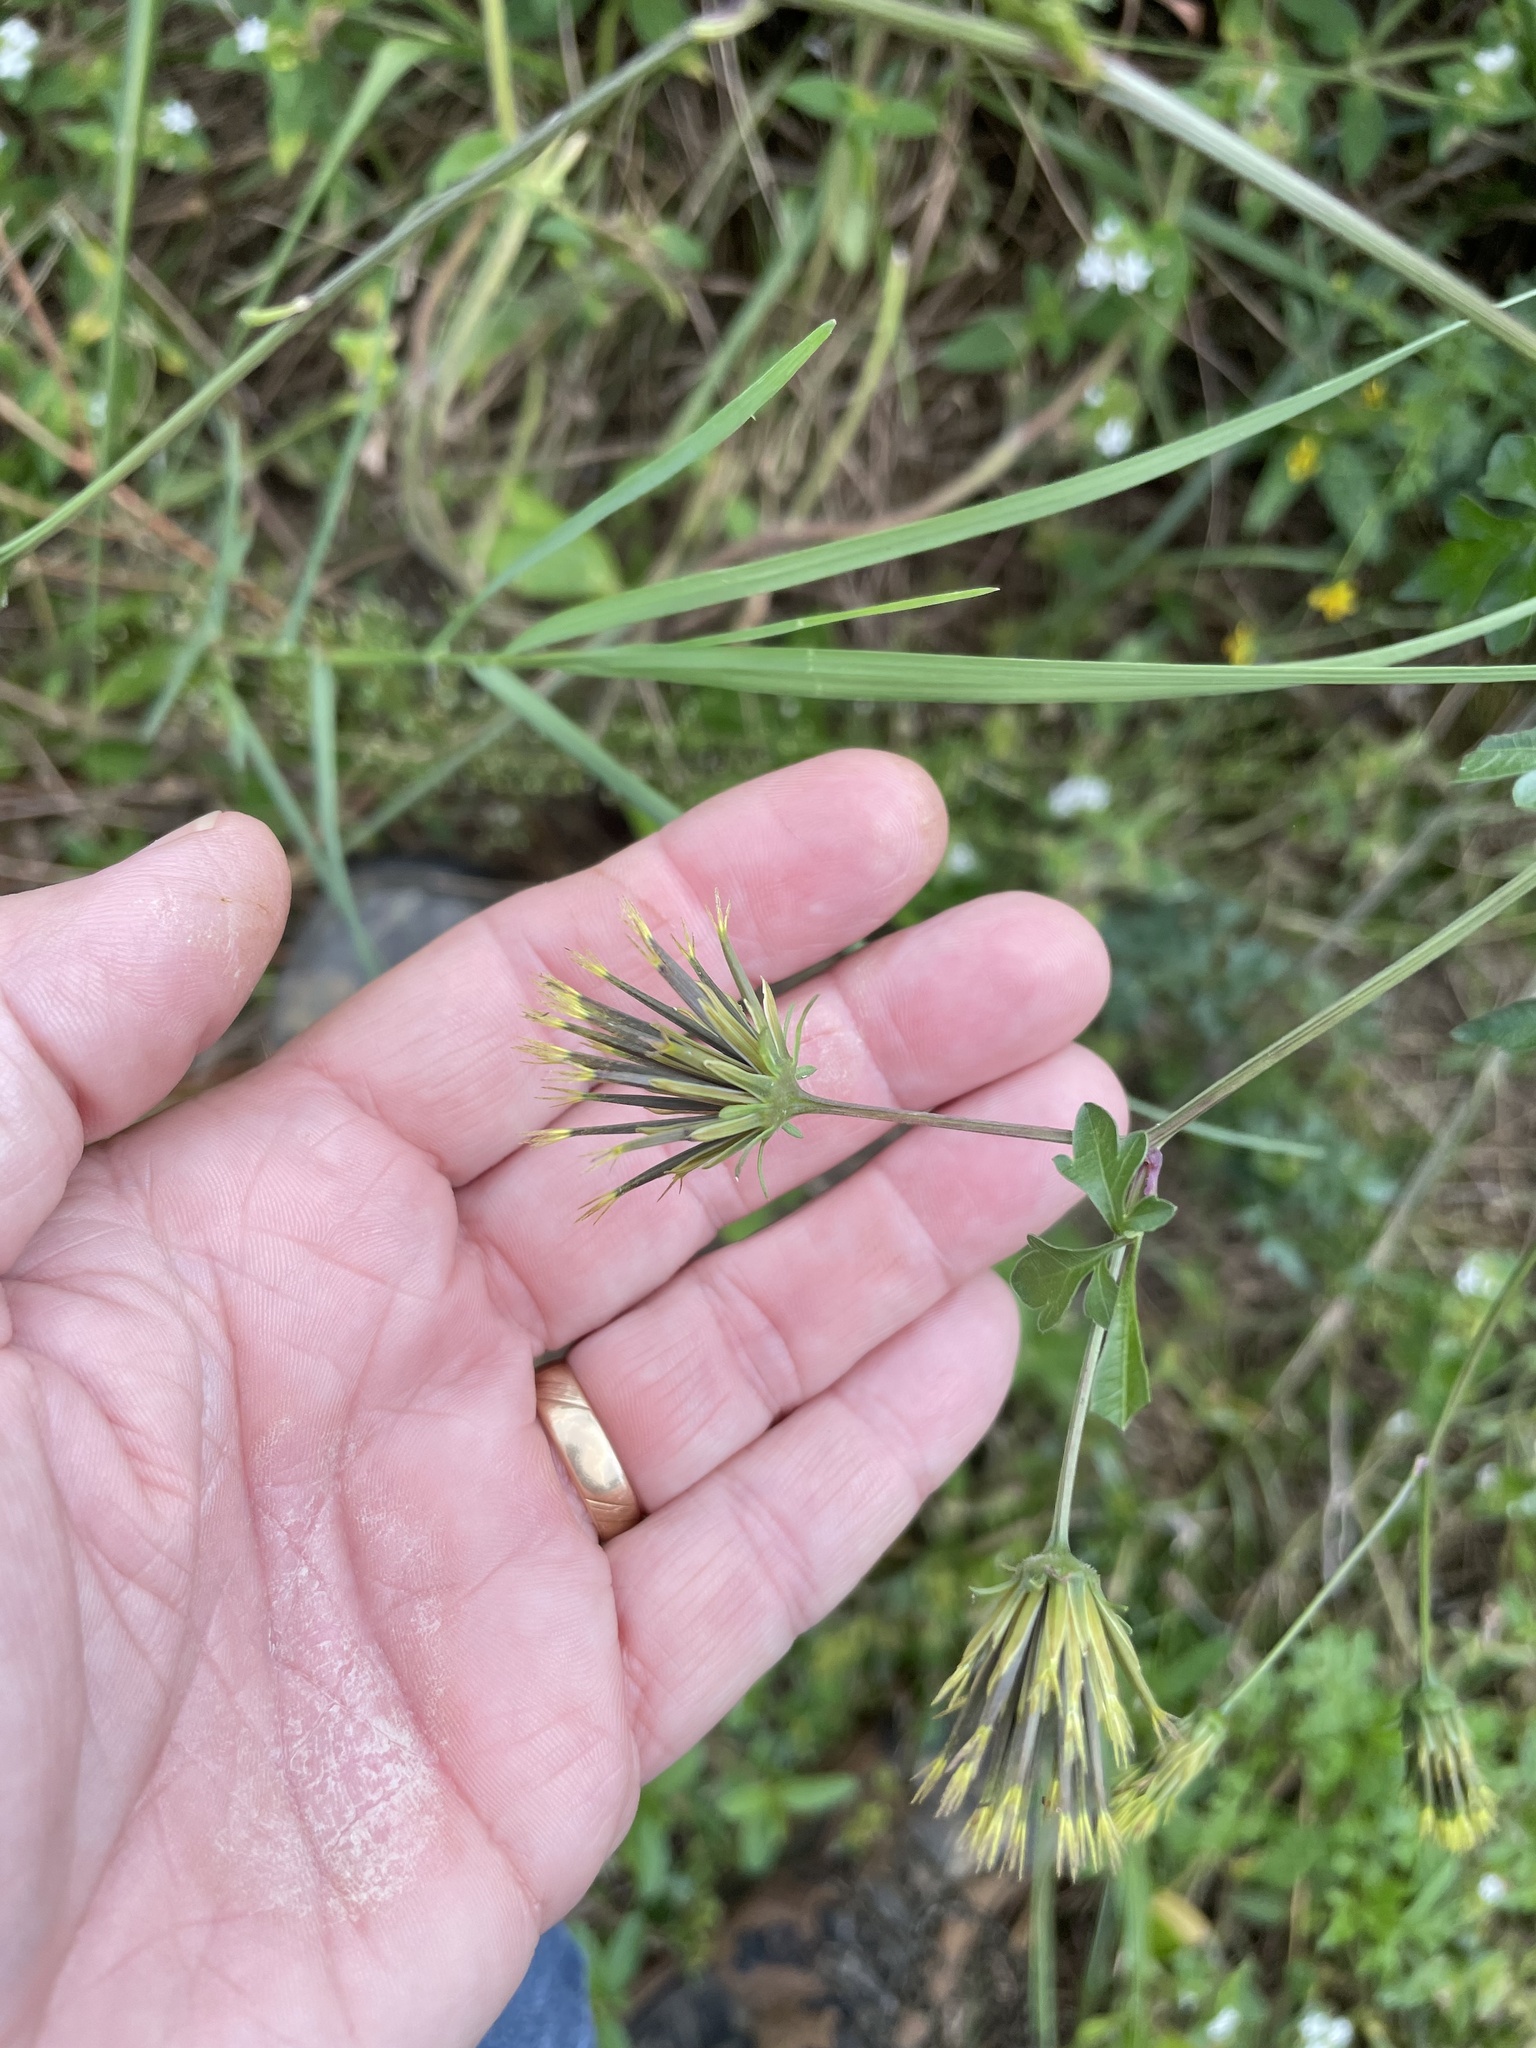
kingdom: Plantae
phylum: Tracheophyta
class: Magnoliopsida
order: Asterales
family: Asteraceae
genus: Bidens
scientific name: Bidens bipinnata
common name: Spanish-needles
